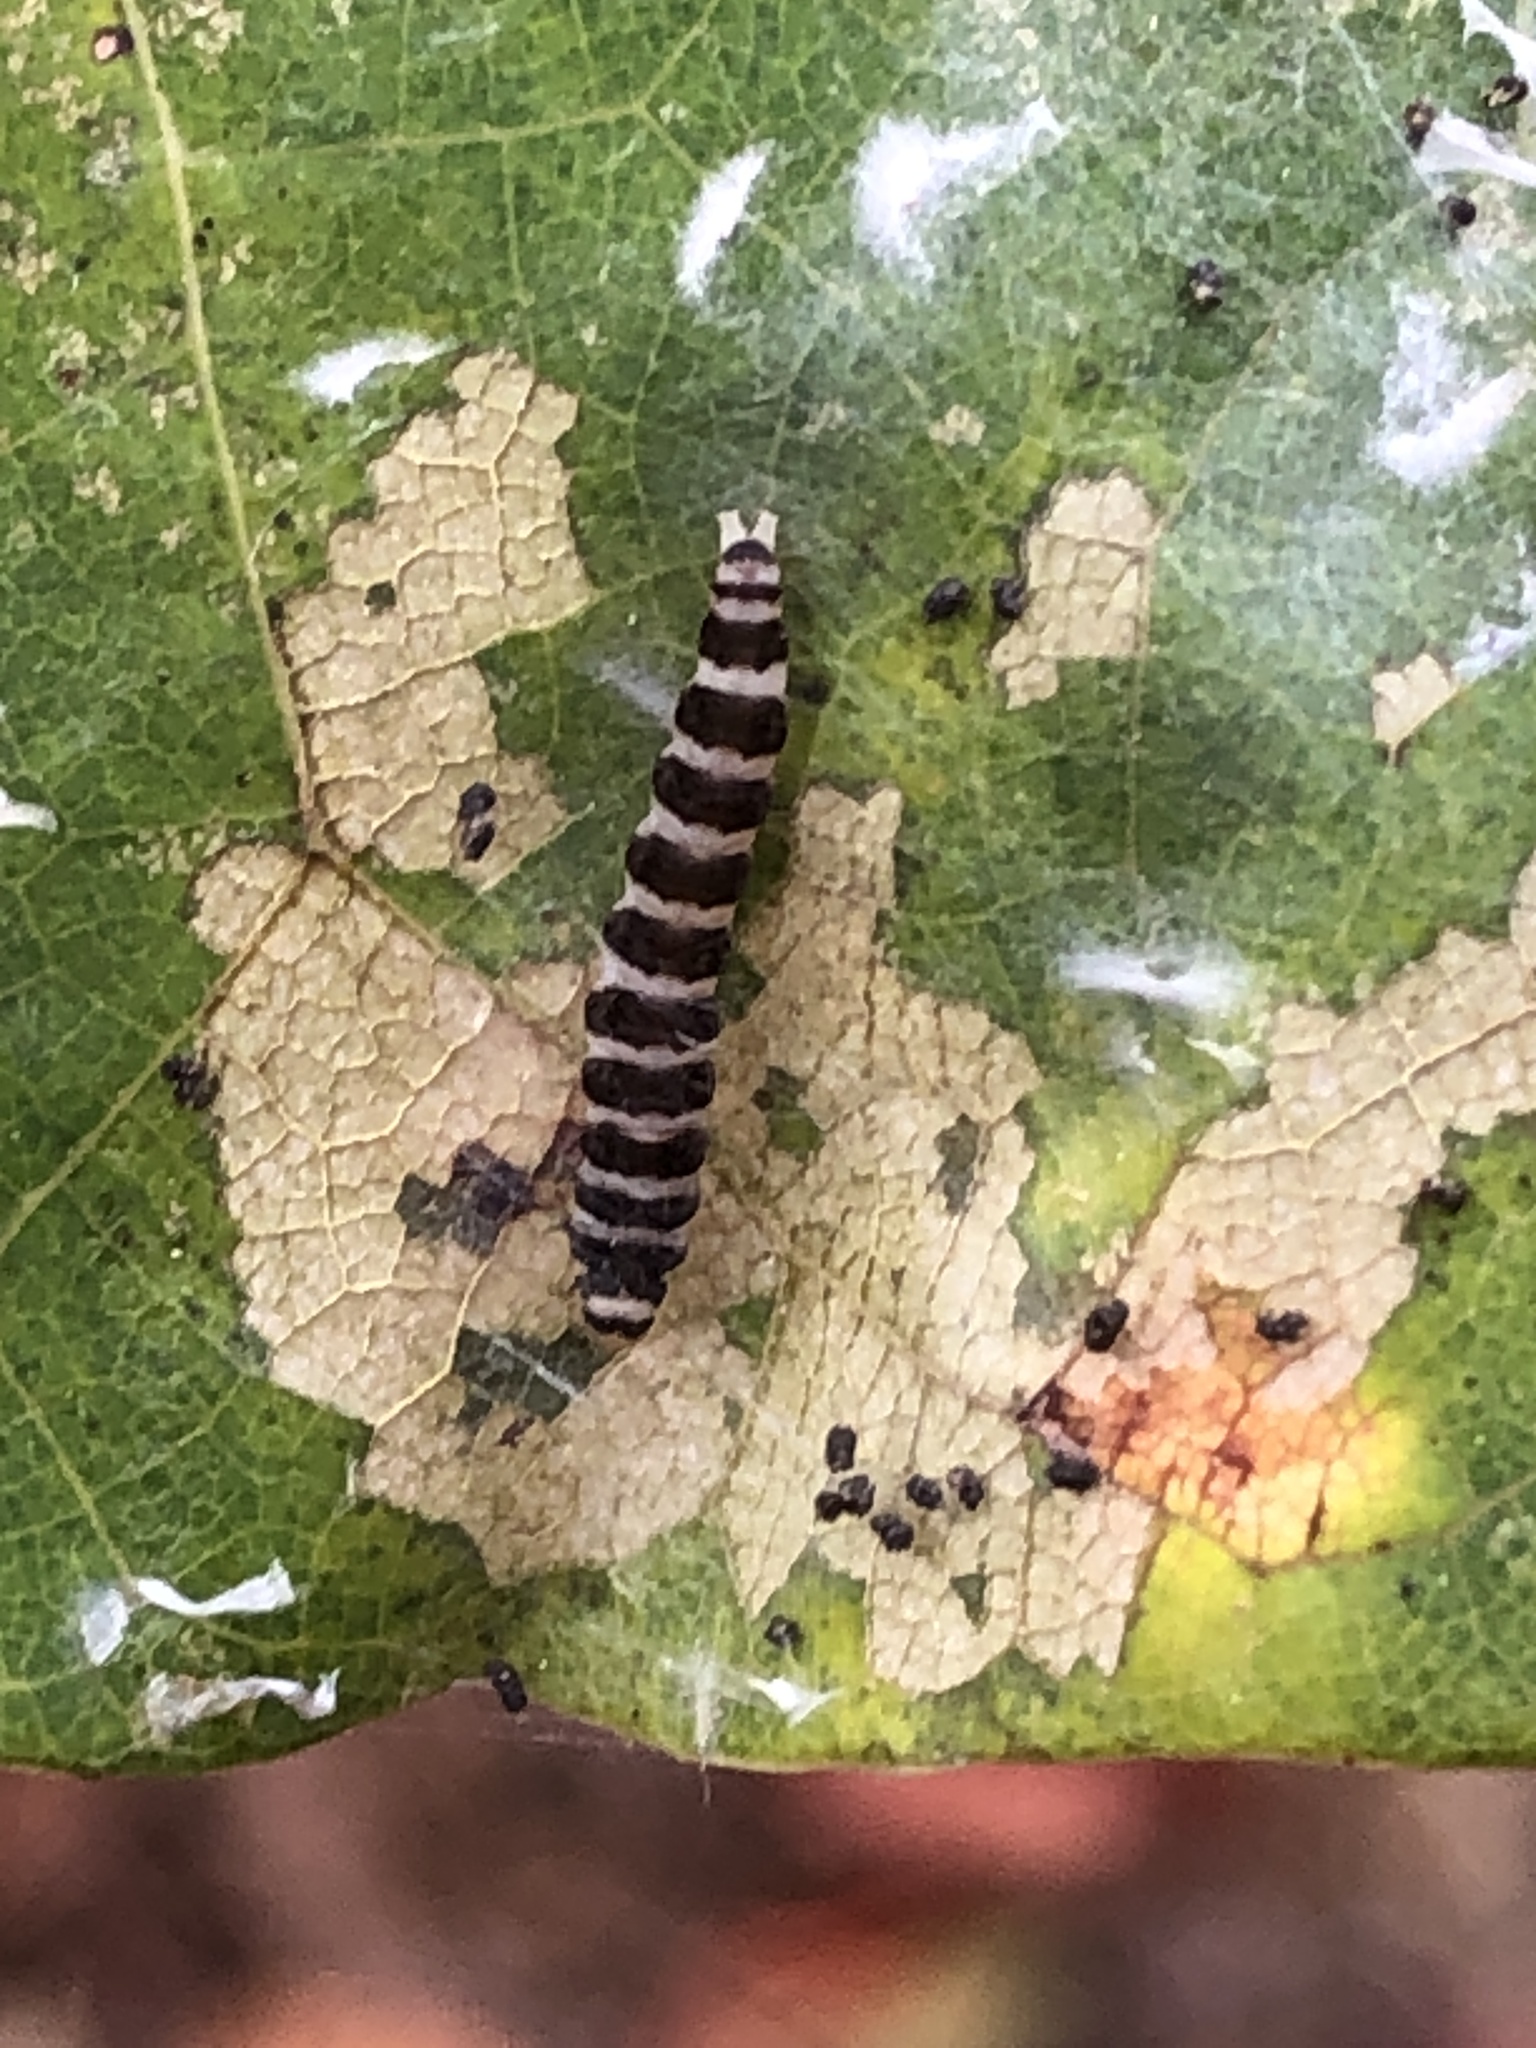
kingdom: Animalia
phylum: Arthropoda
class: Insecta
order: Lepidoptera
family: Gelechiidae
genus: Fascista
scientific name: Fascista cercerisella
